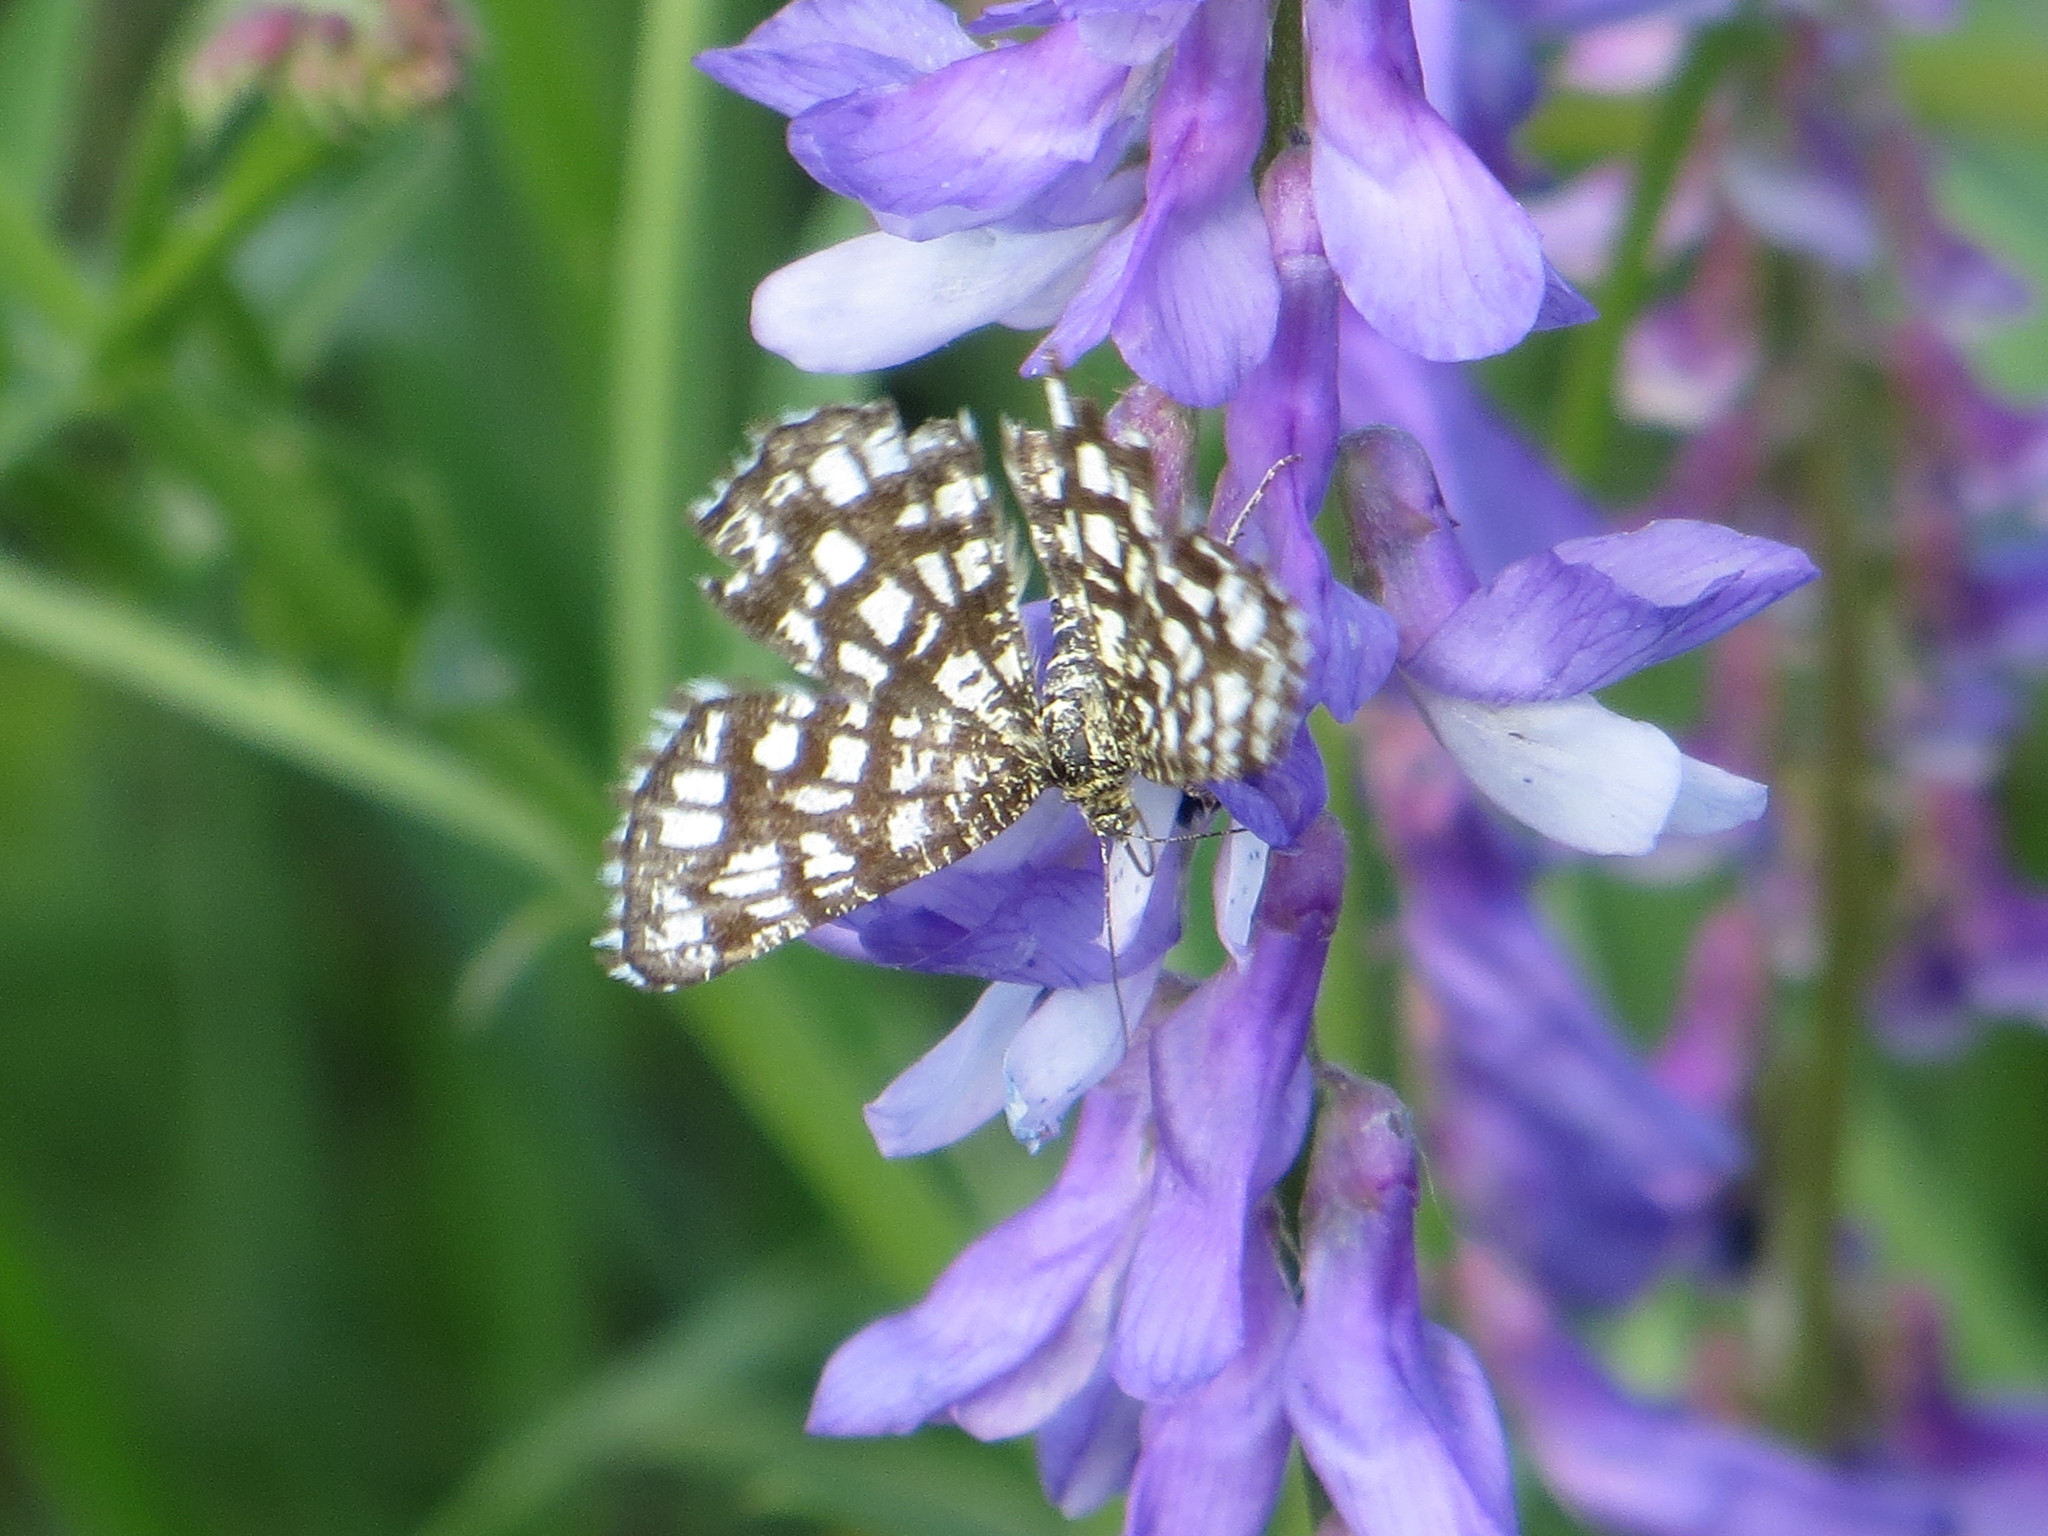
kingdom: Animalia
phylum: Arthropoda
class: Insecta
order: Lepidoptera
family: Geometridae
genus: Chiasmia
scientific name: Chiasmia clathrata
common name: Latticed heath
